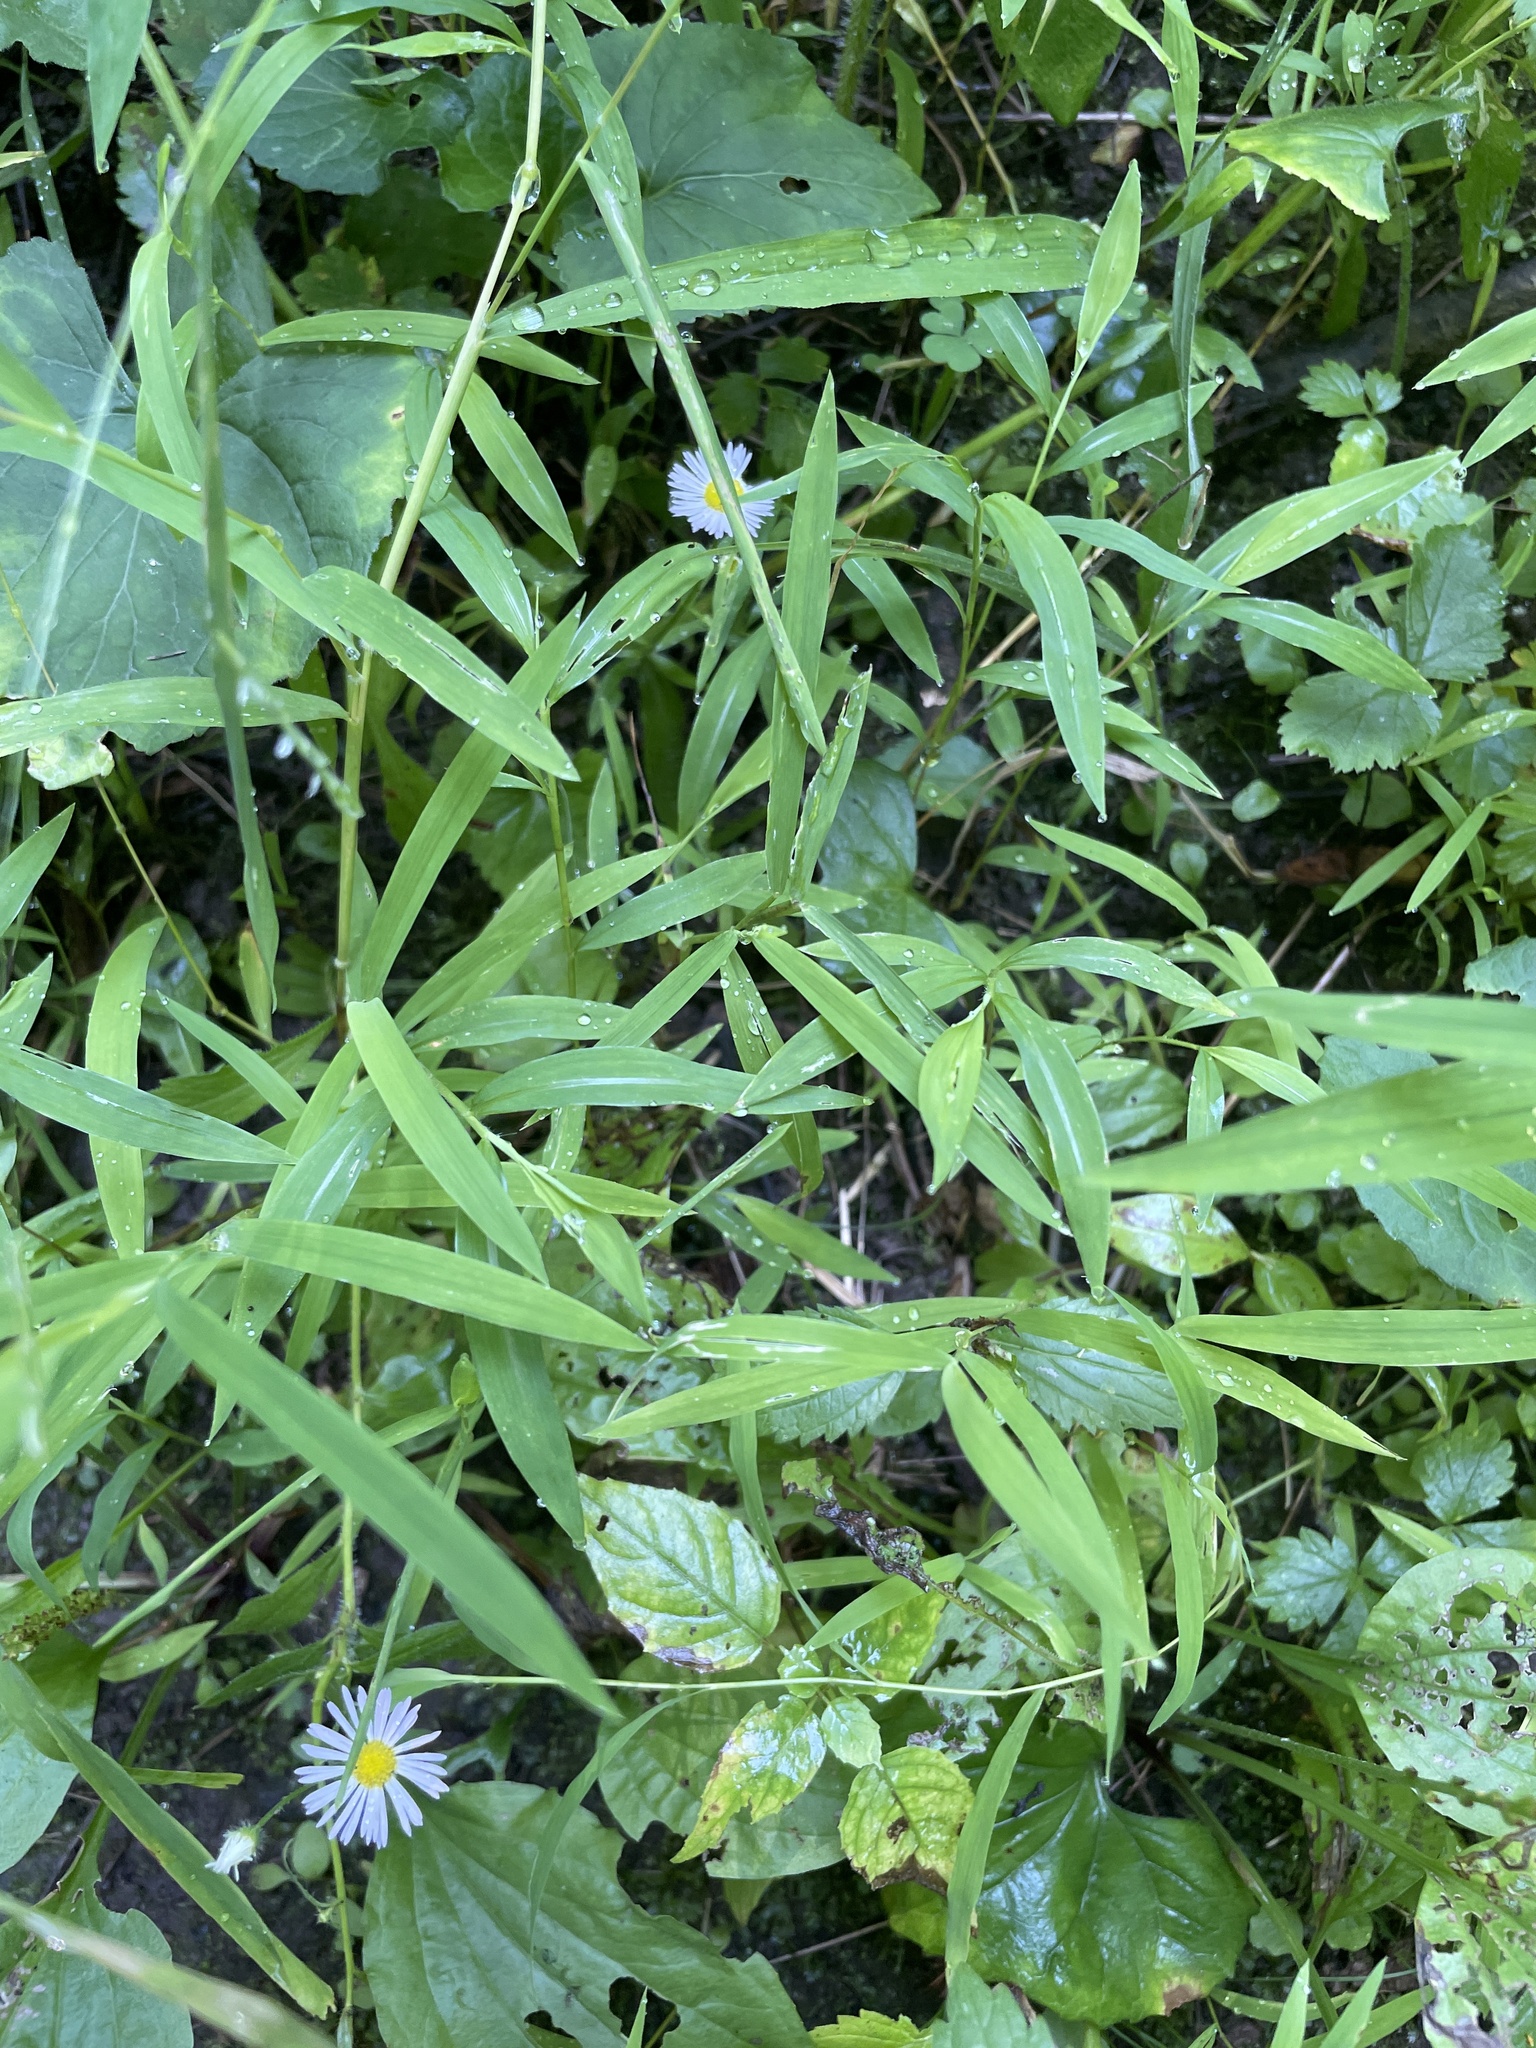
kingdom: Plantae
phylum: Tracheophyta
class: Liliopsida
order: Poales
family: Poaceae
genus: Microstegium
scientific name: Microstegium vimineum
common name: Japanese stiltgrass
